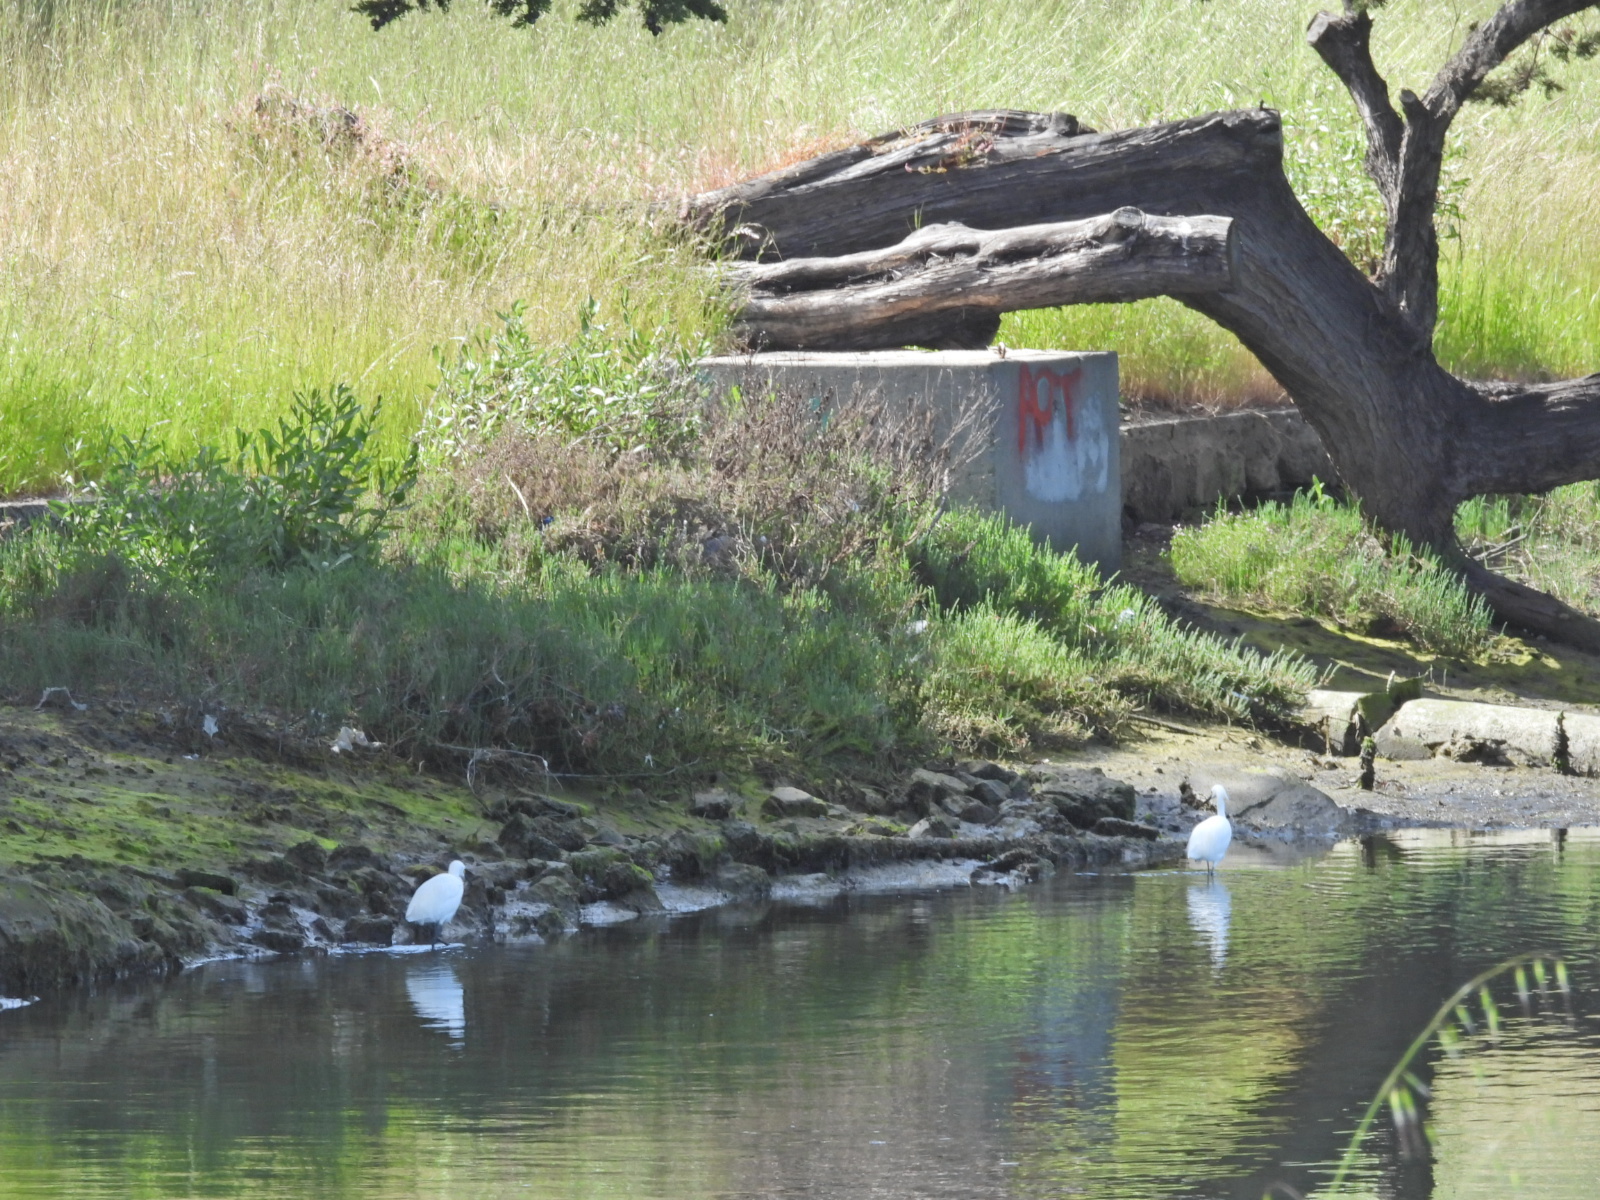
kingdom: Animalia
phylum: Chordata
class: Aves
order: Pelecaniformes
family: Ardeidae
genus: Egretta
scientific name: Egretta thula
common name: Snowy egret
